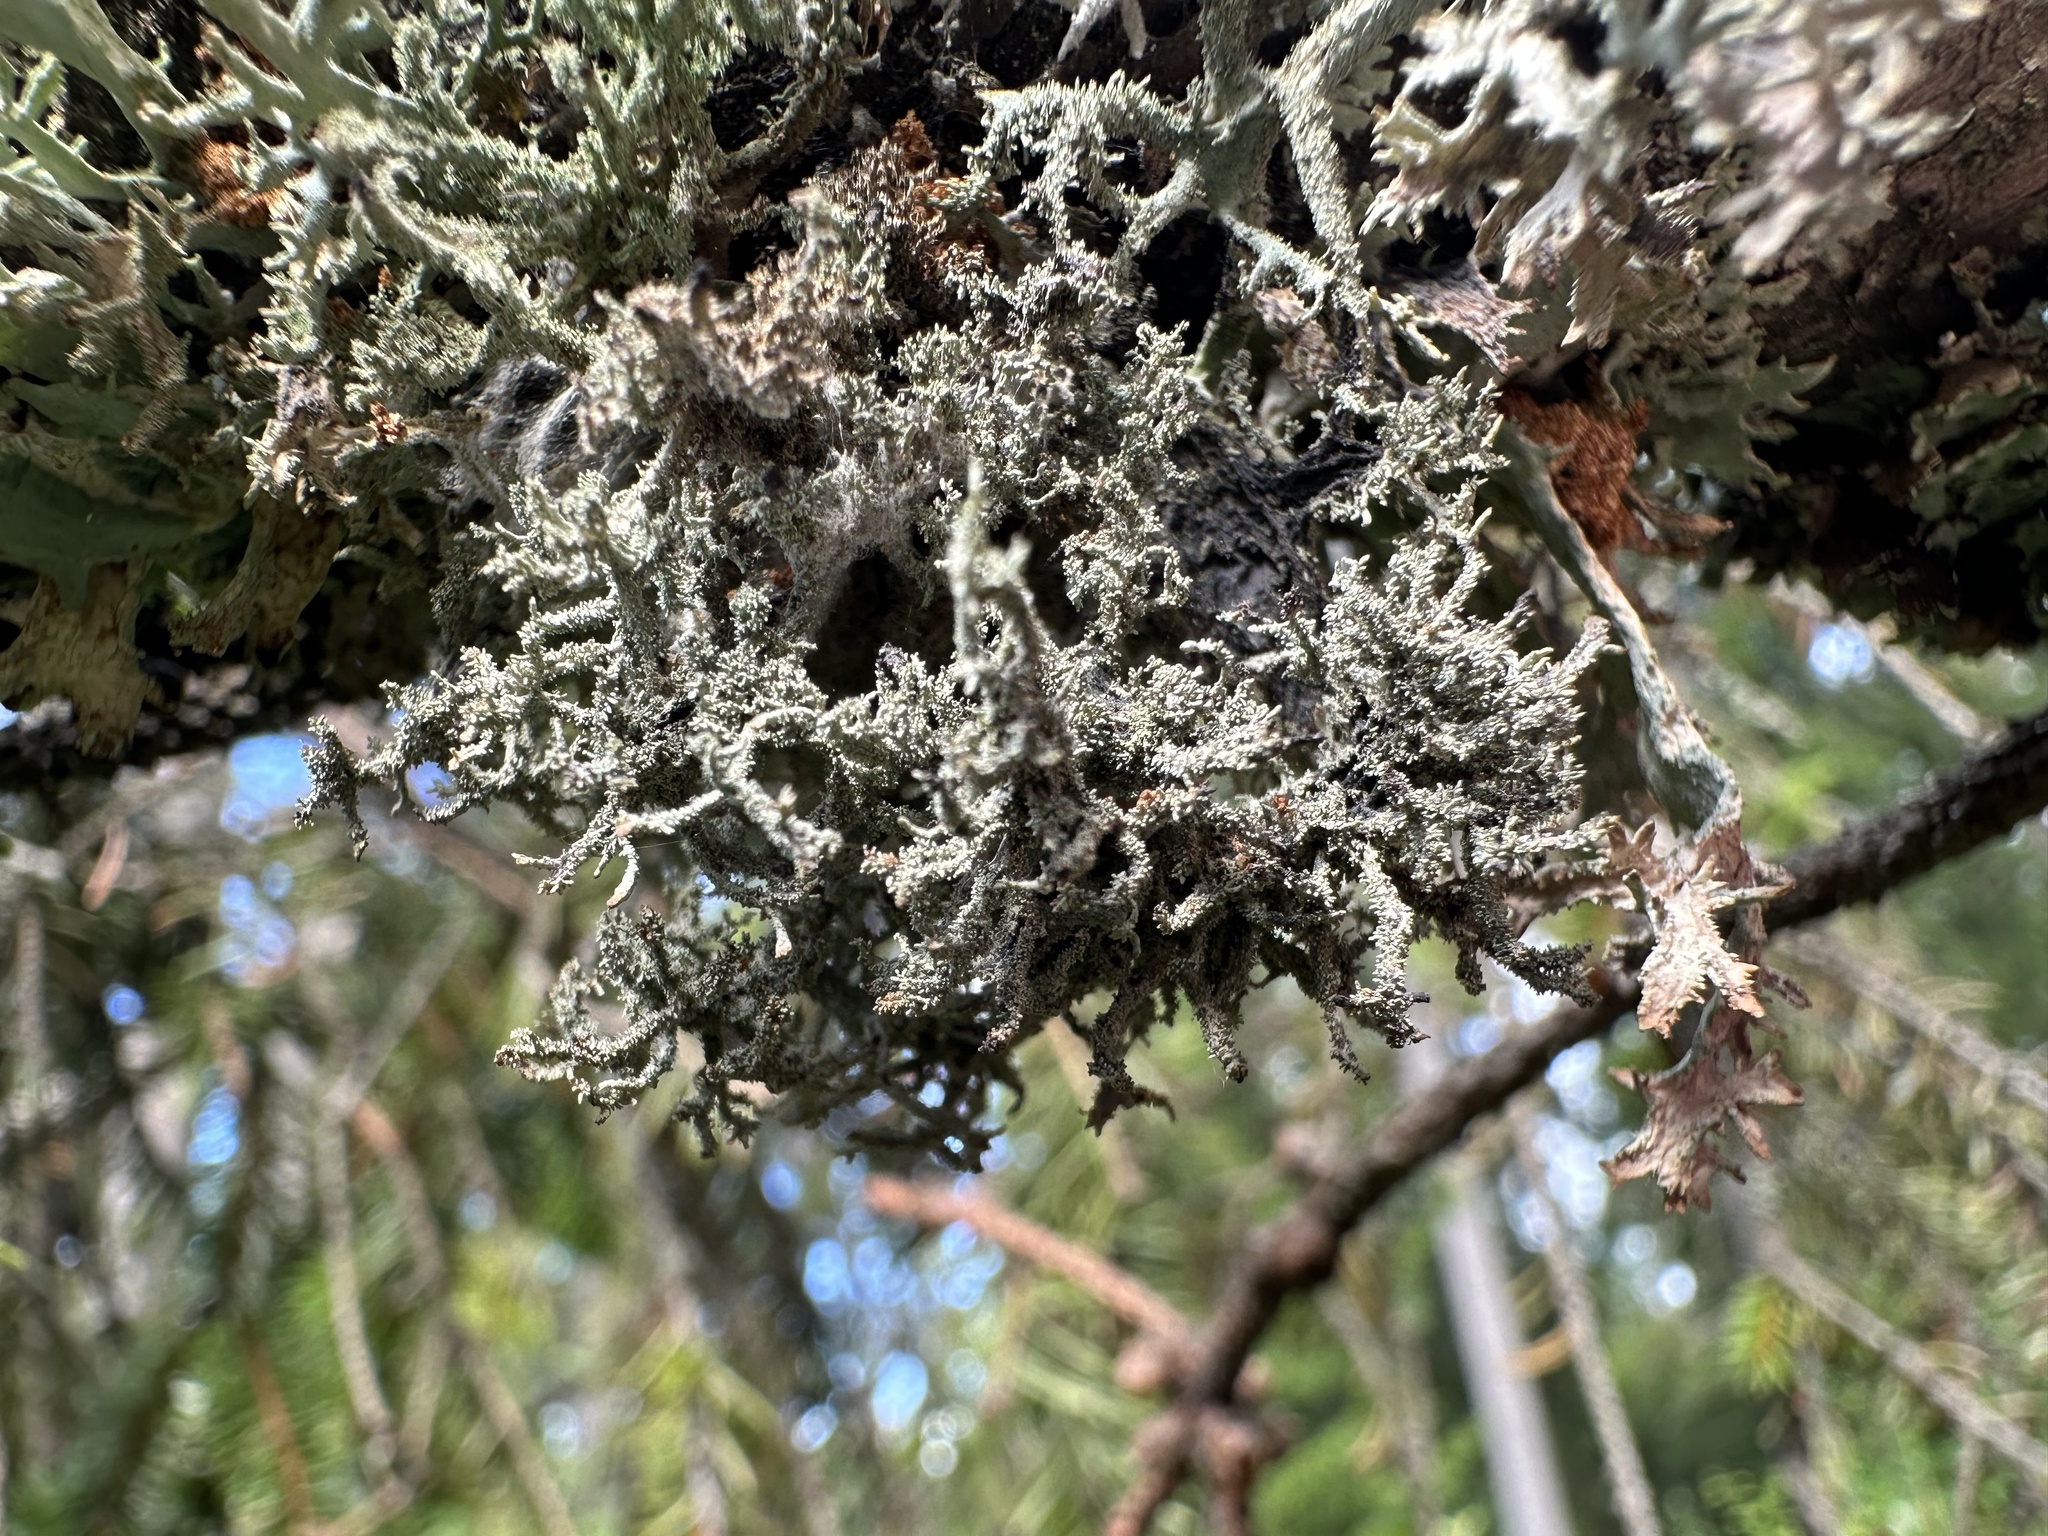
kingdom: Fungi
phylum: Ascomycota
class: Lecanoromycetes
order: Lecanorales
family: Parmeliaceae
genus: Pseudevernia
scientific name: Pseudevernia furfuracea
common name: Tree moss
